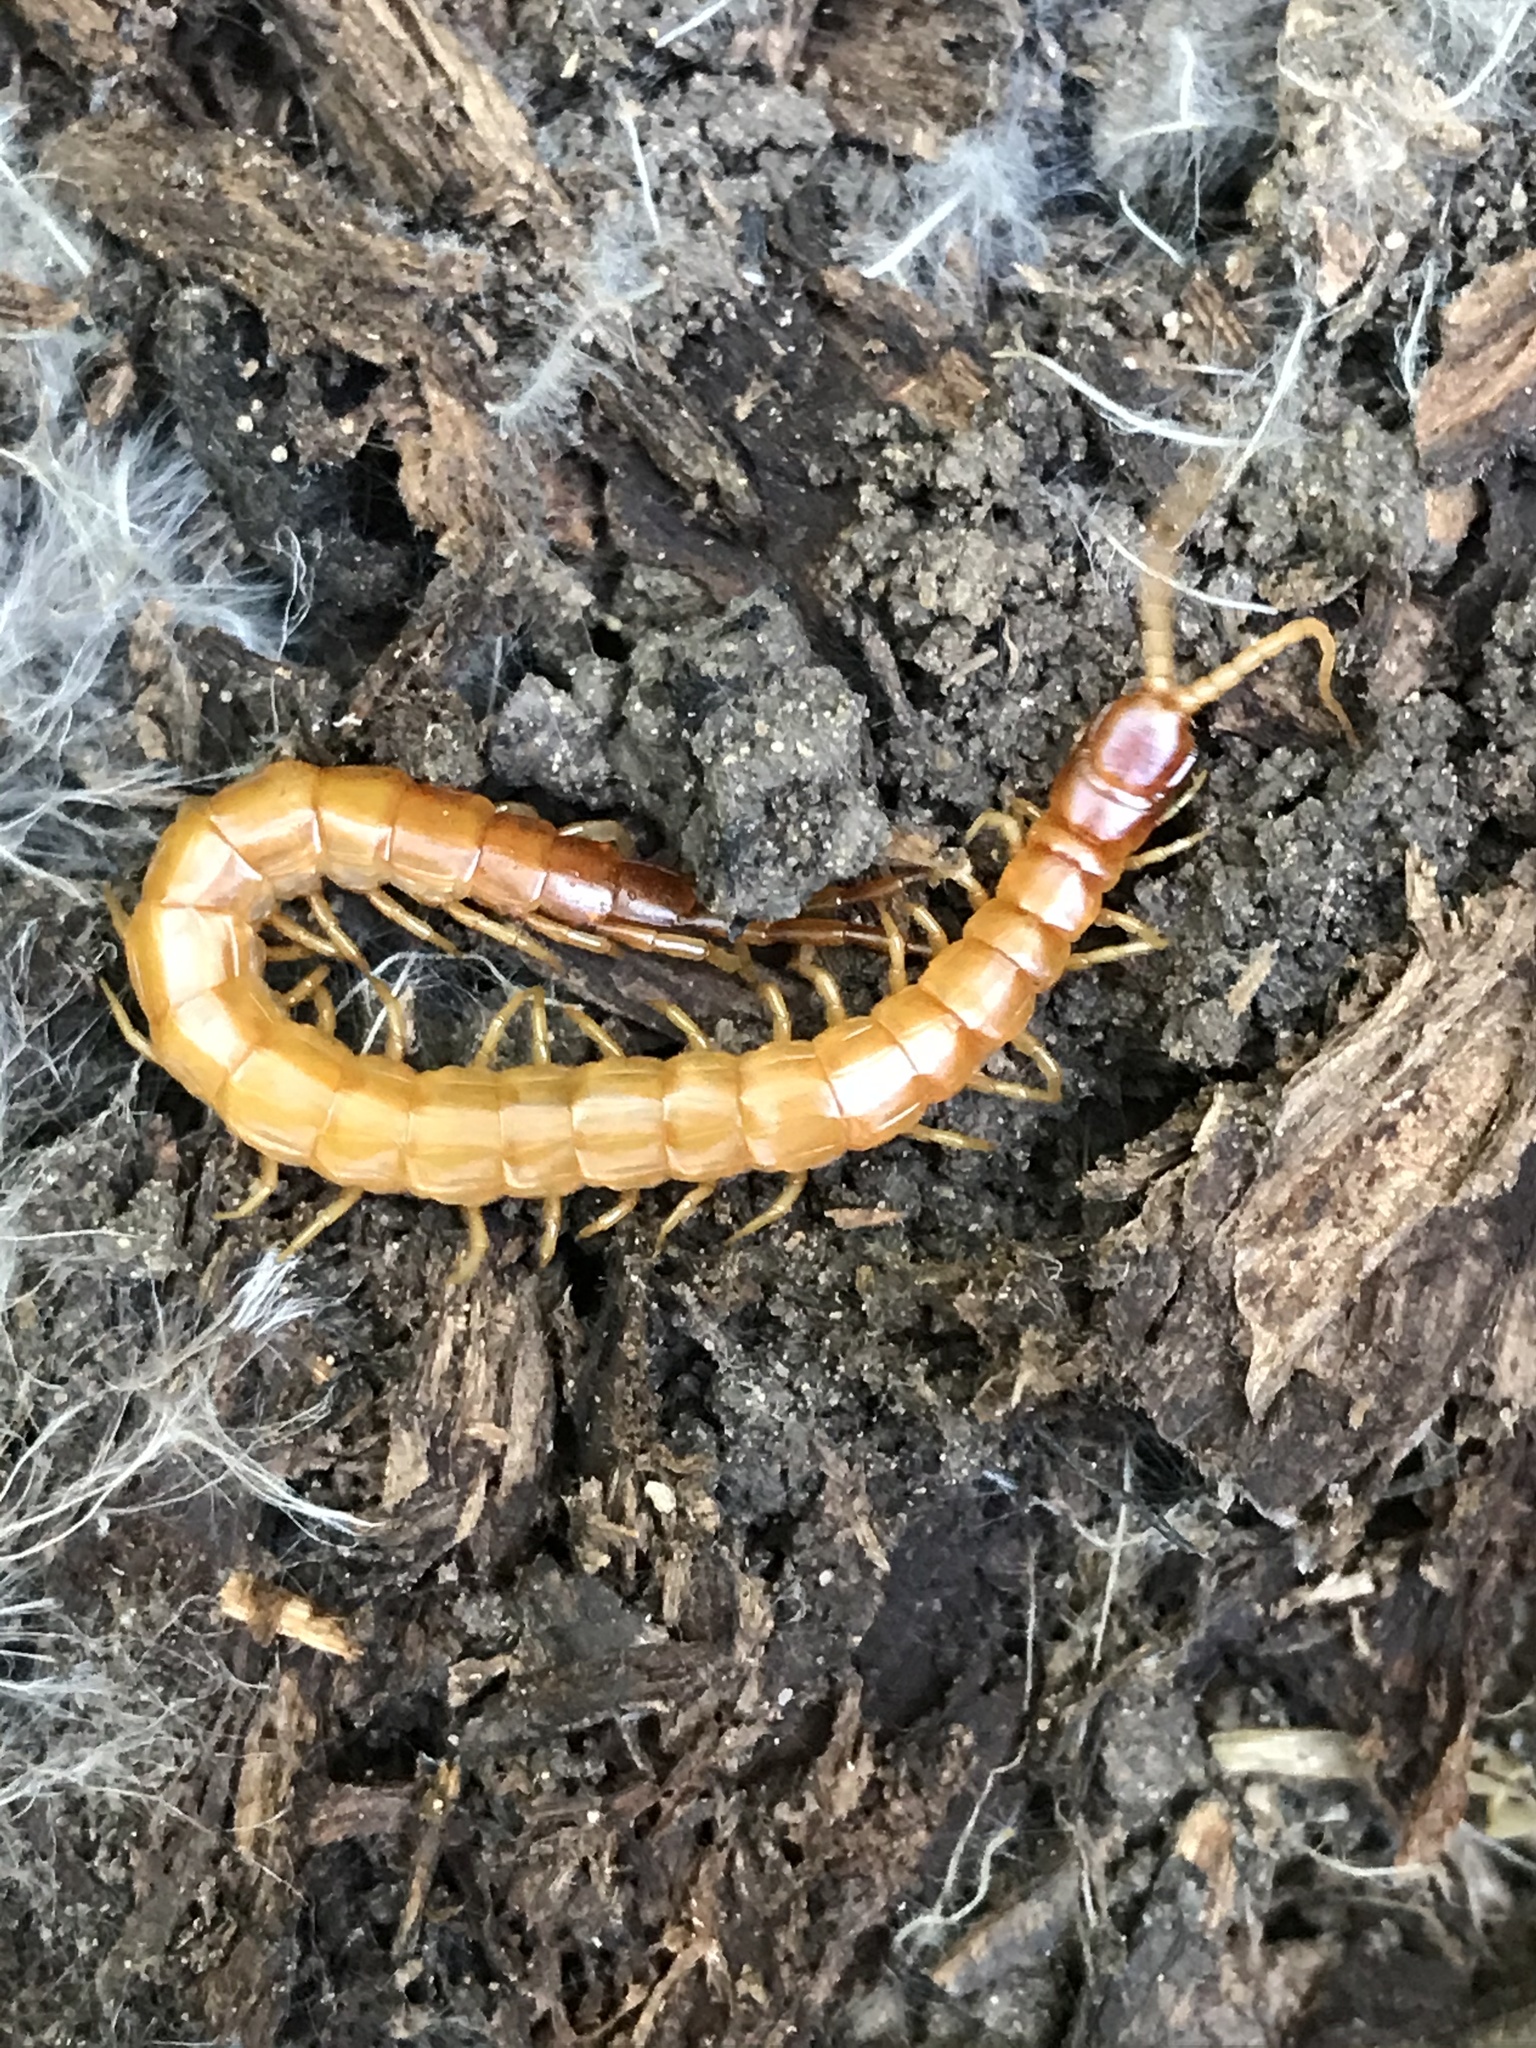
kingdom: Animalia
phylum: Arthropoda
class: Chilopoda
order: Scolopendromorpha
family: Scolopocryptopidae
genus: Scolopocryptops
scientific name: Scolopocryptops gracilis
